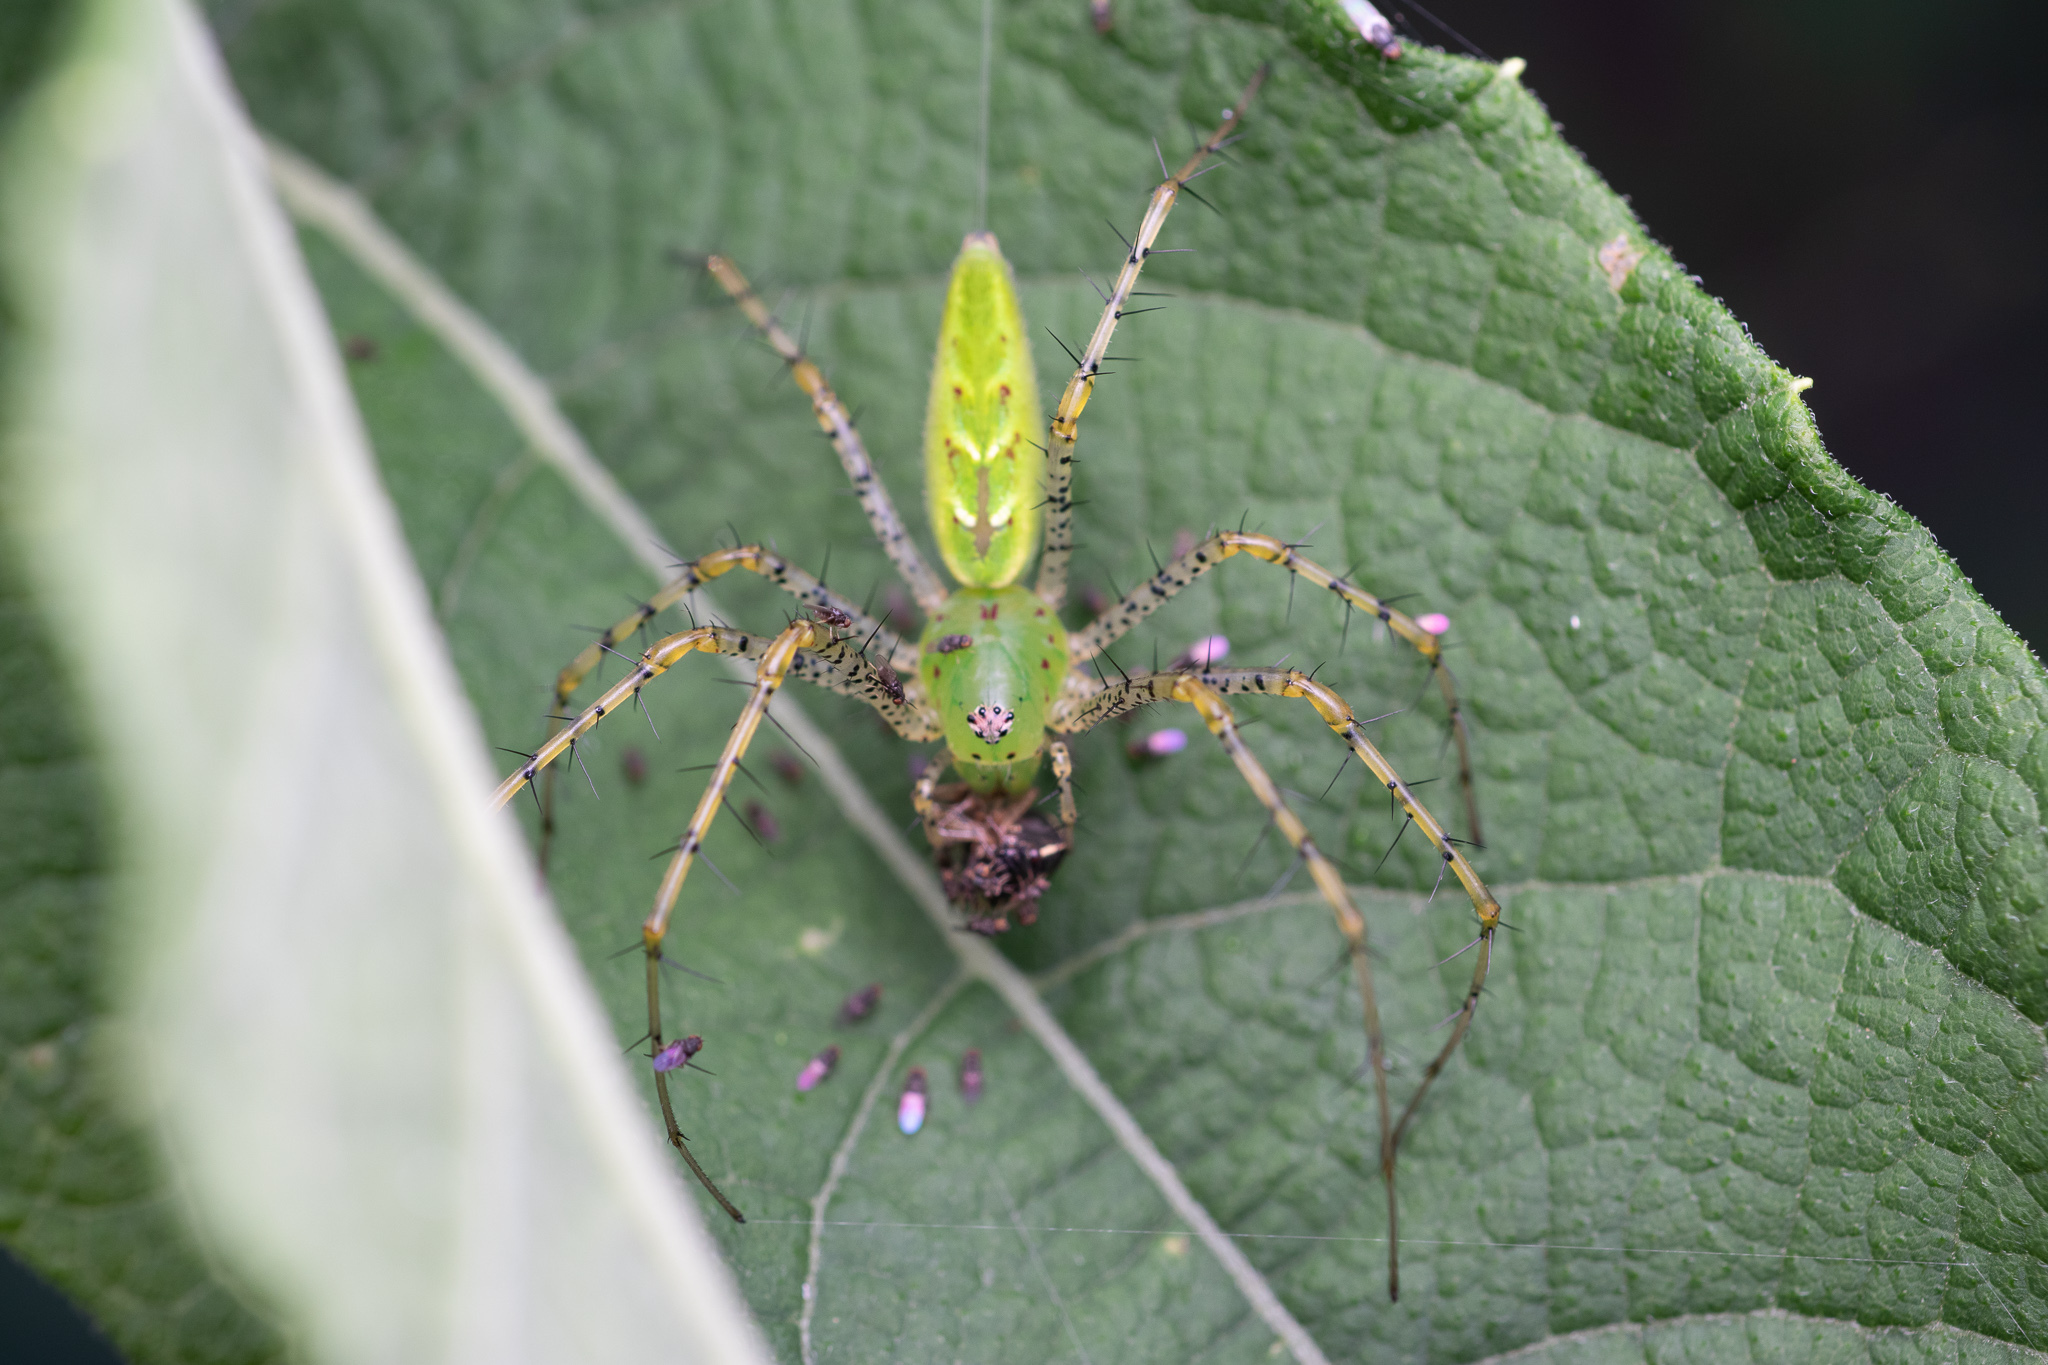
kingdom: Animalia
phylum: Arthropoda
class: Arachnida
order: Araneae
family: Oxyopidae
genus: Peucetia
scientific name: Peucetia viridans
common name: Lynx spiders
